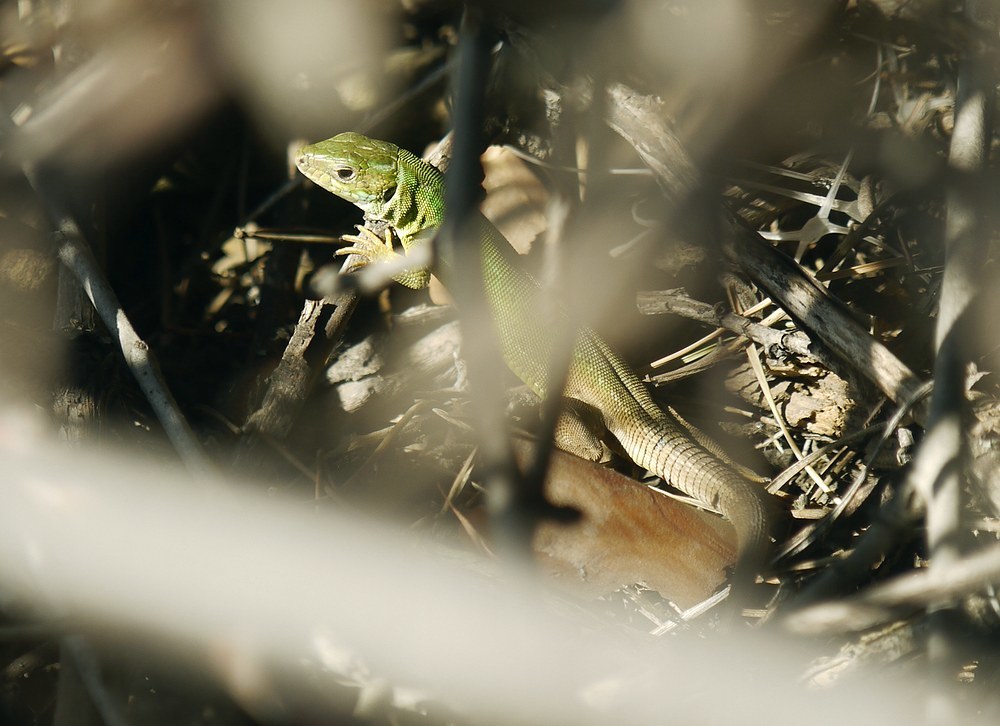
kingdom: Animalia
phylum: Chordata
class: Squamata
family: Lacertidae
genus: Lacerta
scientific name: Lacerta viridis
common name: European green lizard
